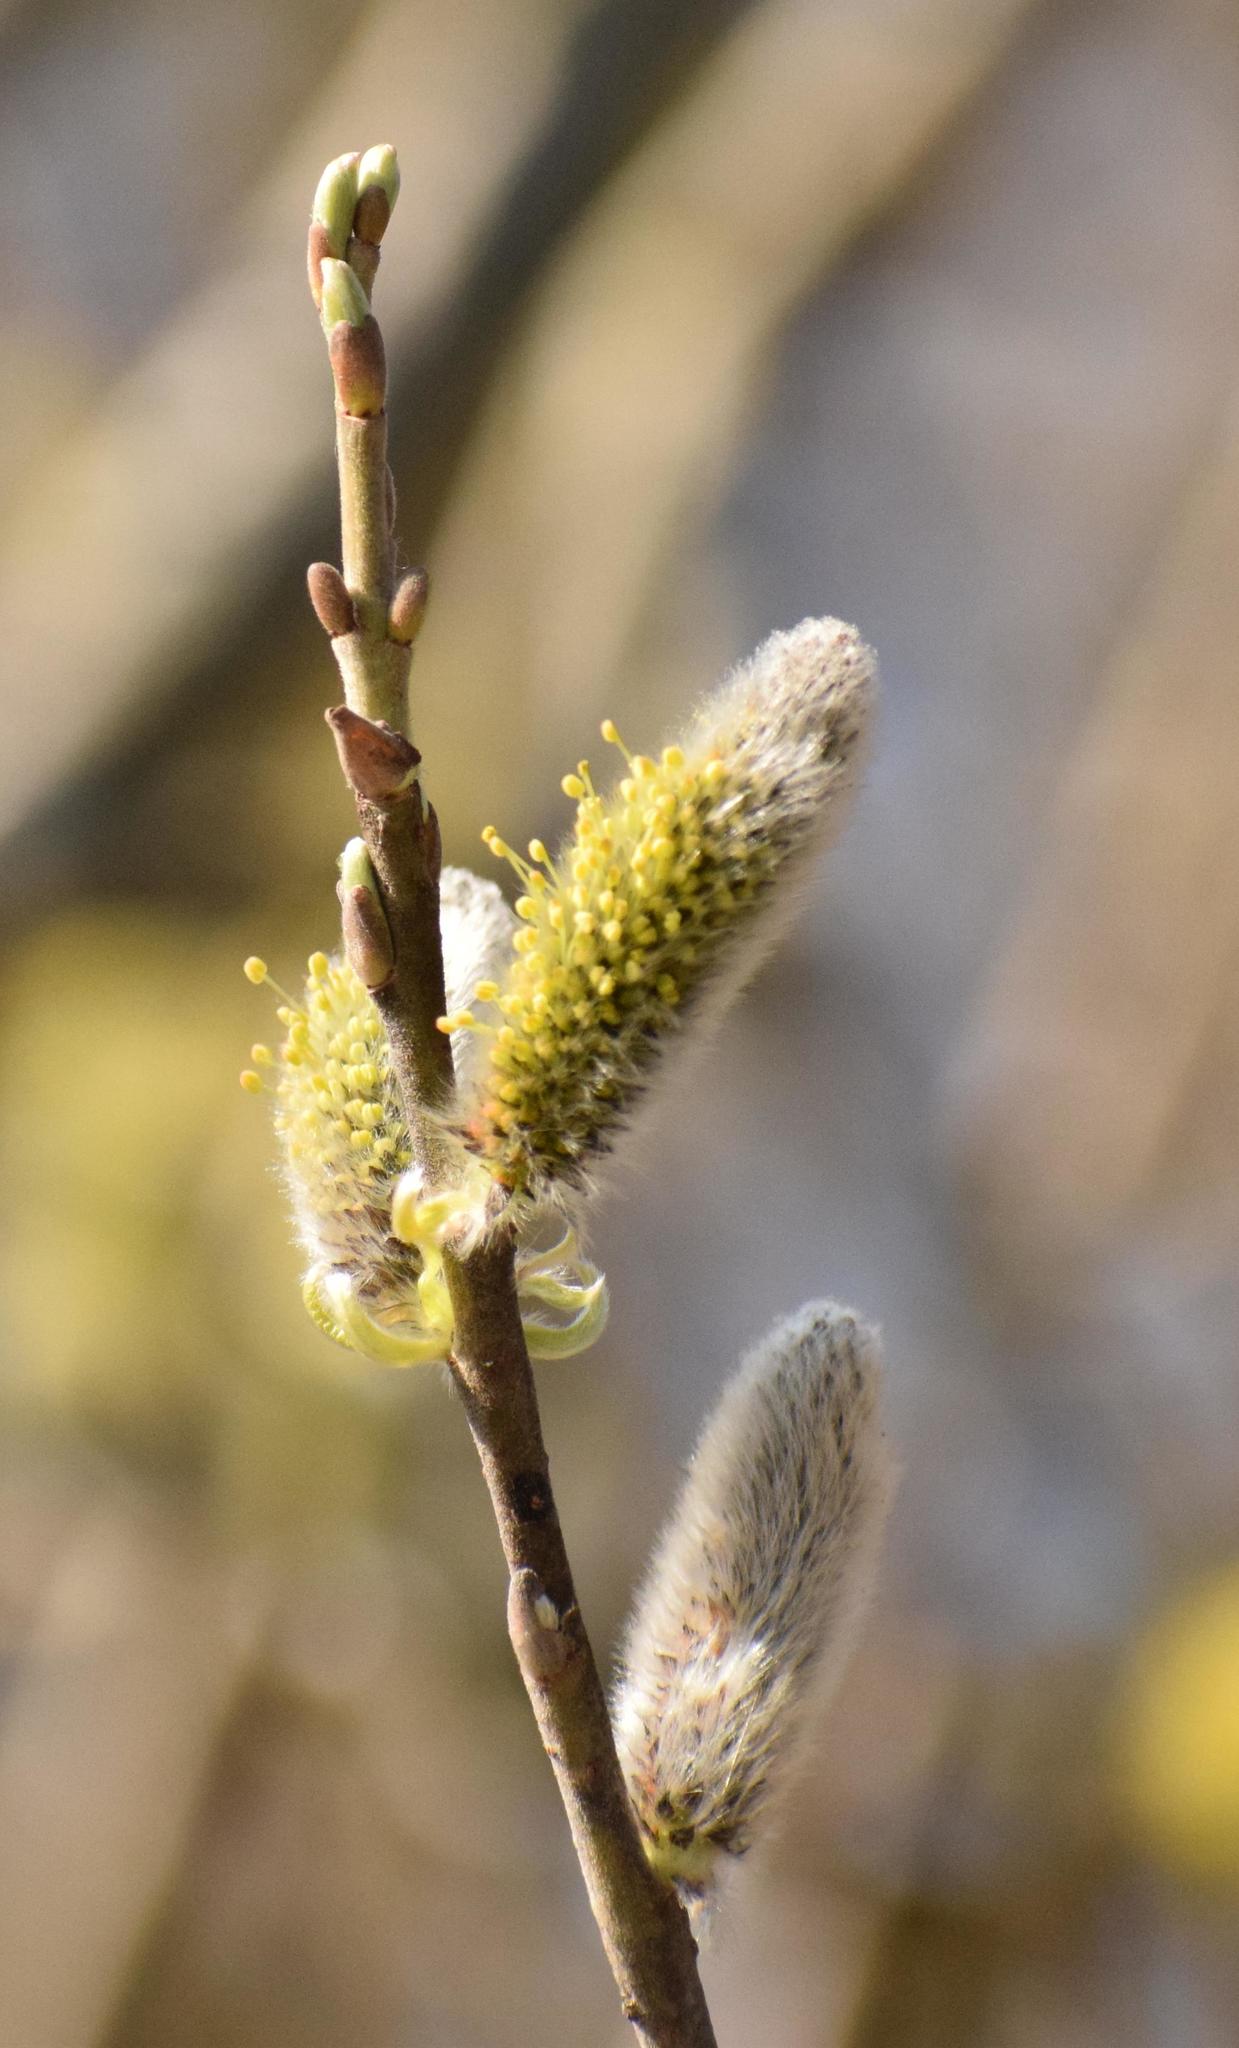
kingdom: Plantae
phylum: Tracheophyta
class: Magnoliopsida
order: Malpighiales
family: Salicaceae
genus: Salix
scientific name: Salix caprea
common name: Goat willow
